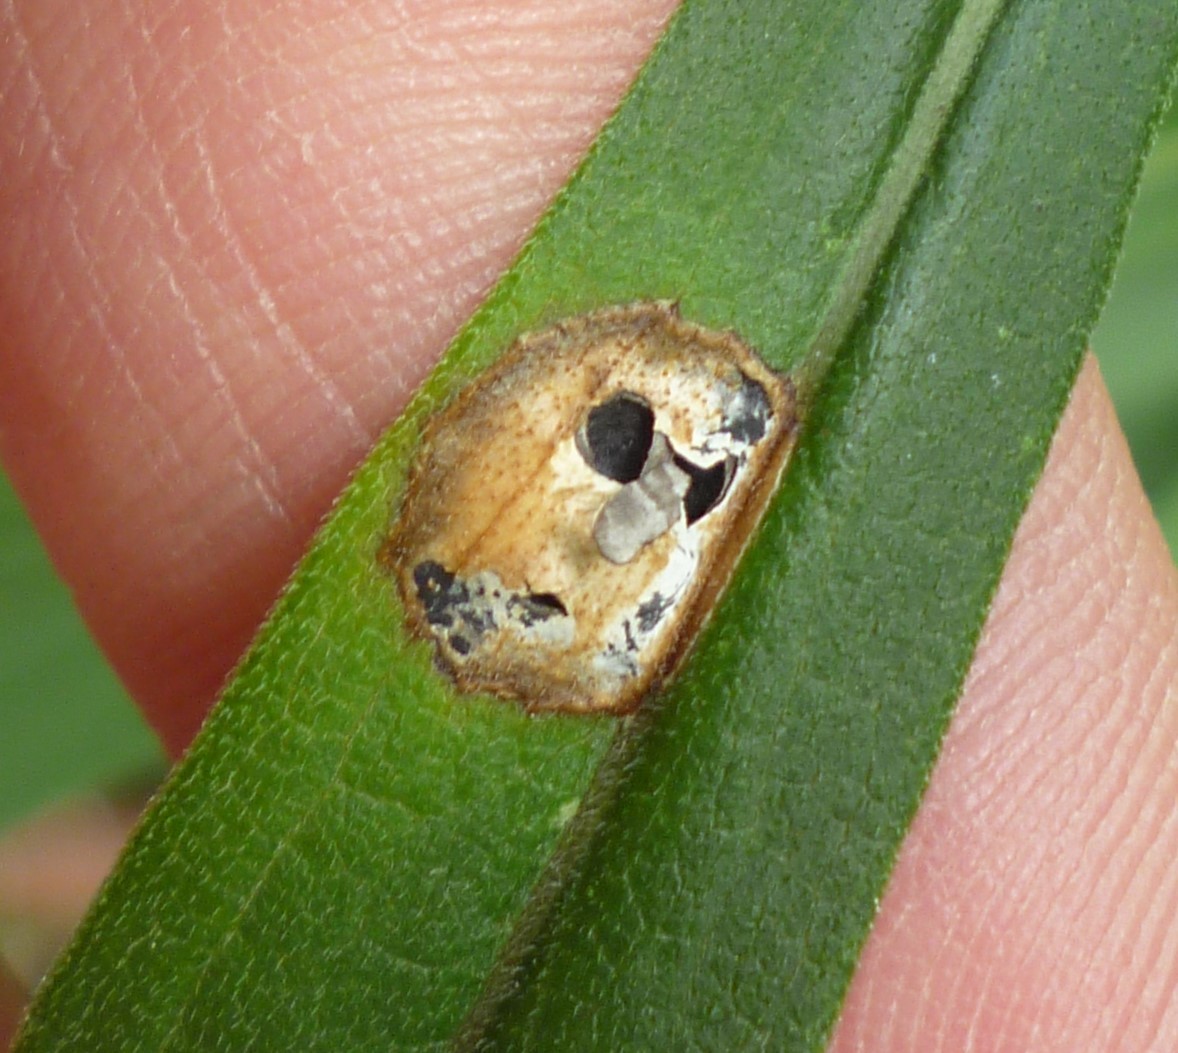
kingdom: Animalia
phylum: Arthropoda
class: Insecta
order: Diptera
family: Cecidomyiidae
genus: Asteromyia
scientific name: Asteromyia carbonifera
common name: Carbonifera goldenrod gall midge
